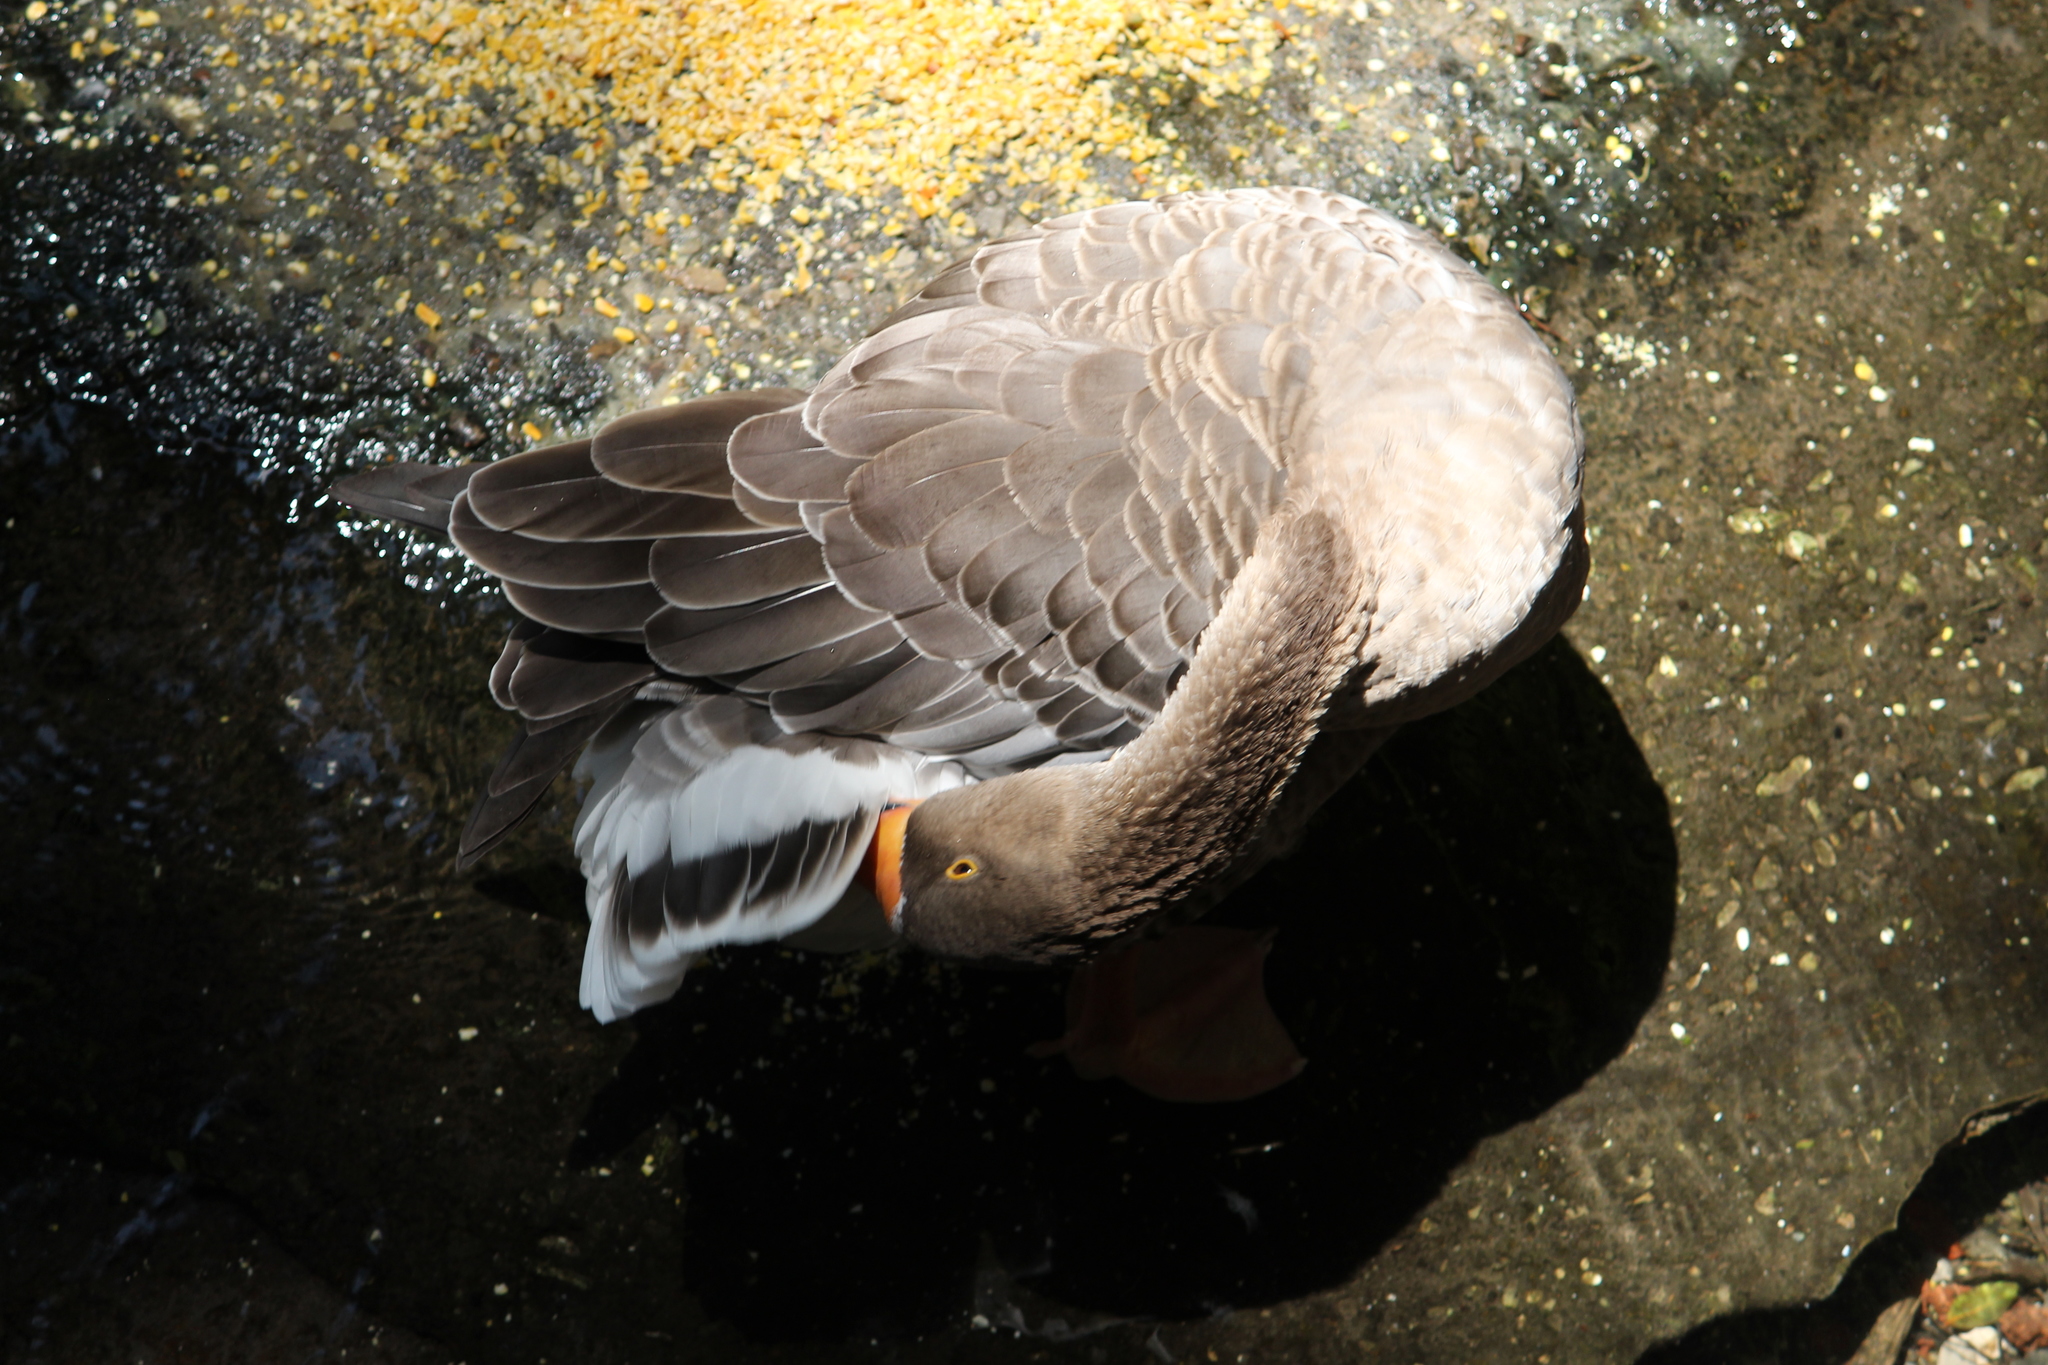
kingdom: Animalia
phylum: Chordata
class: Aves
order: Anseriformes
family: Anatidae
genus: Anser
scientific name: Anser anser
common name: Greylag goose
